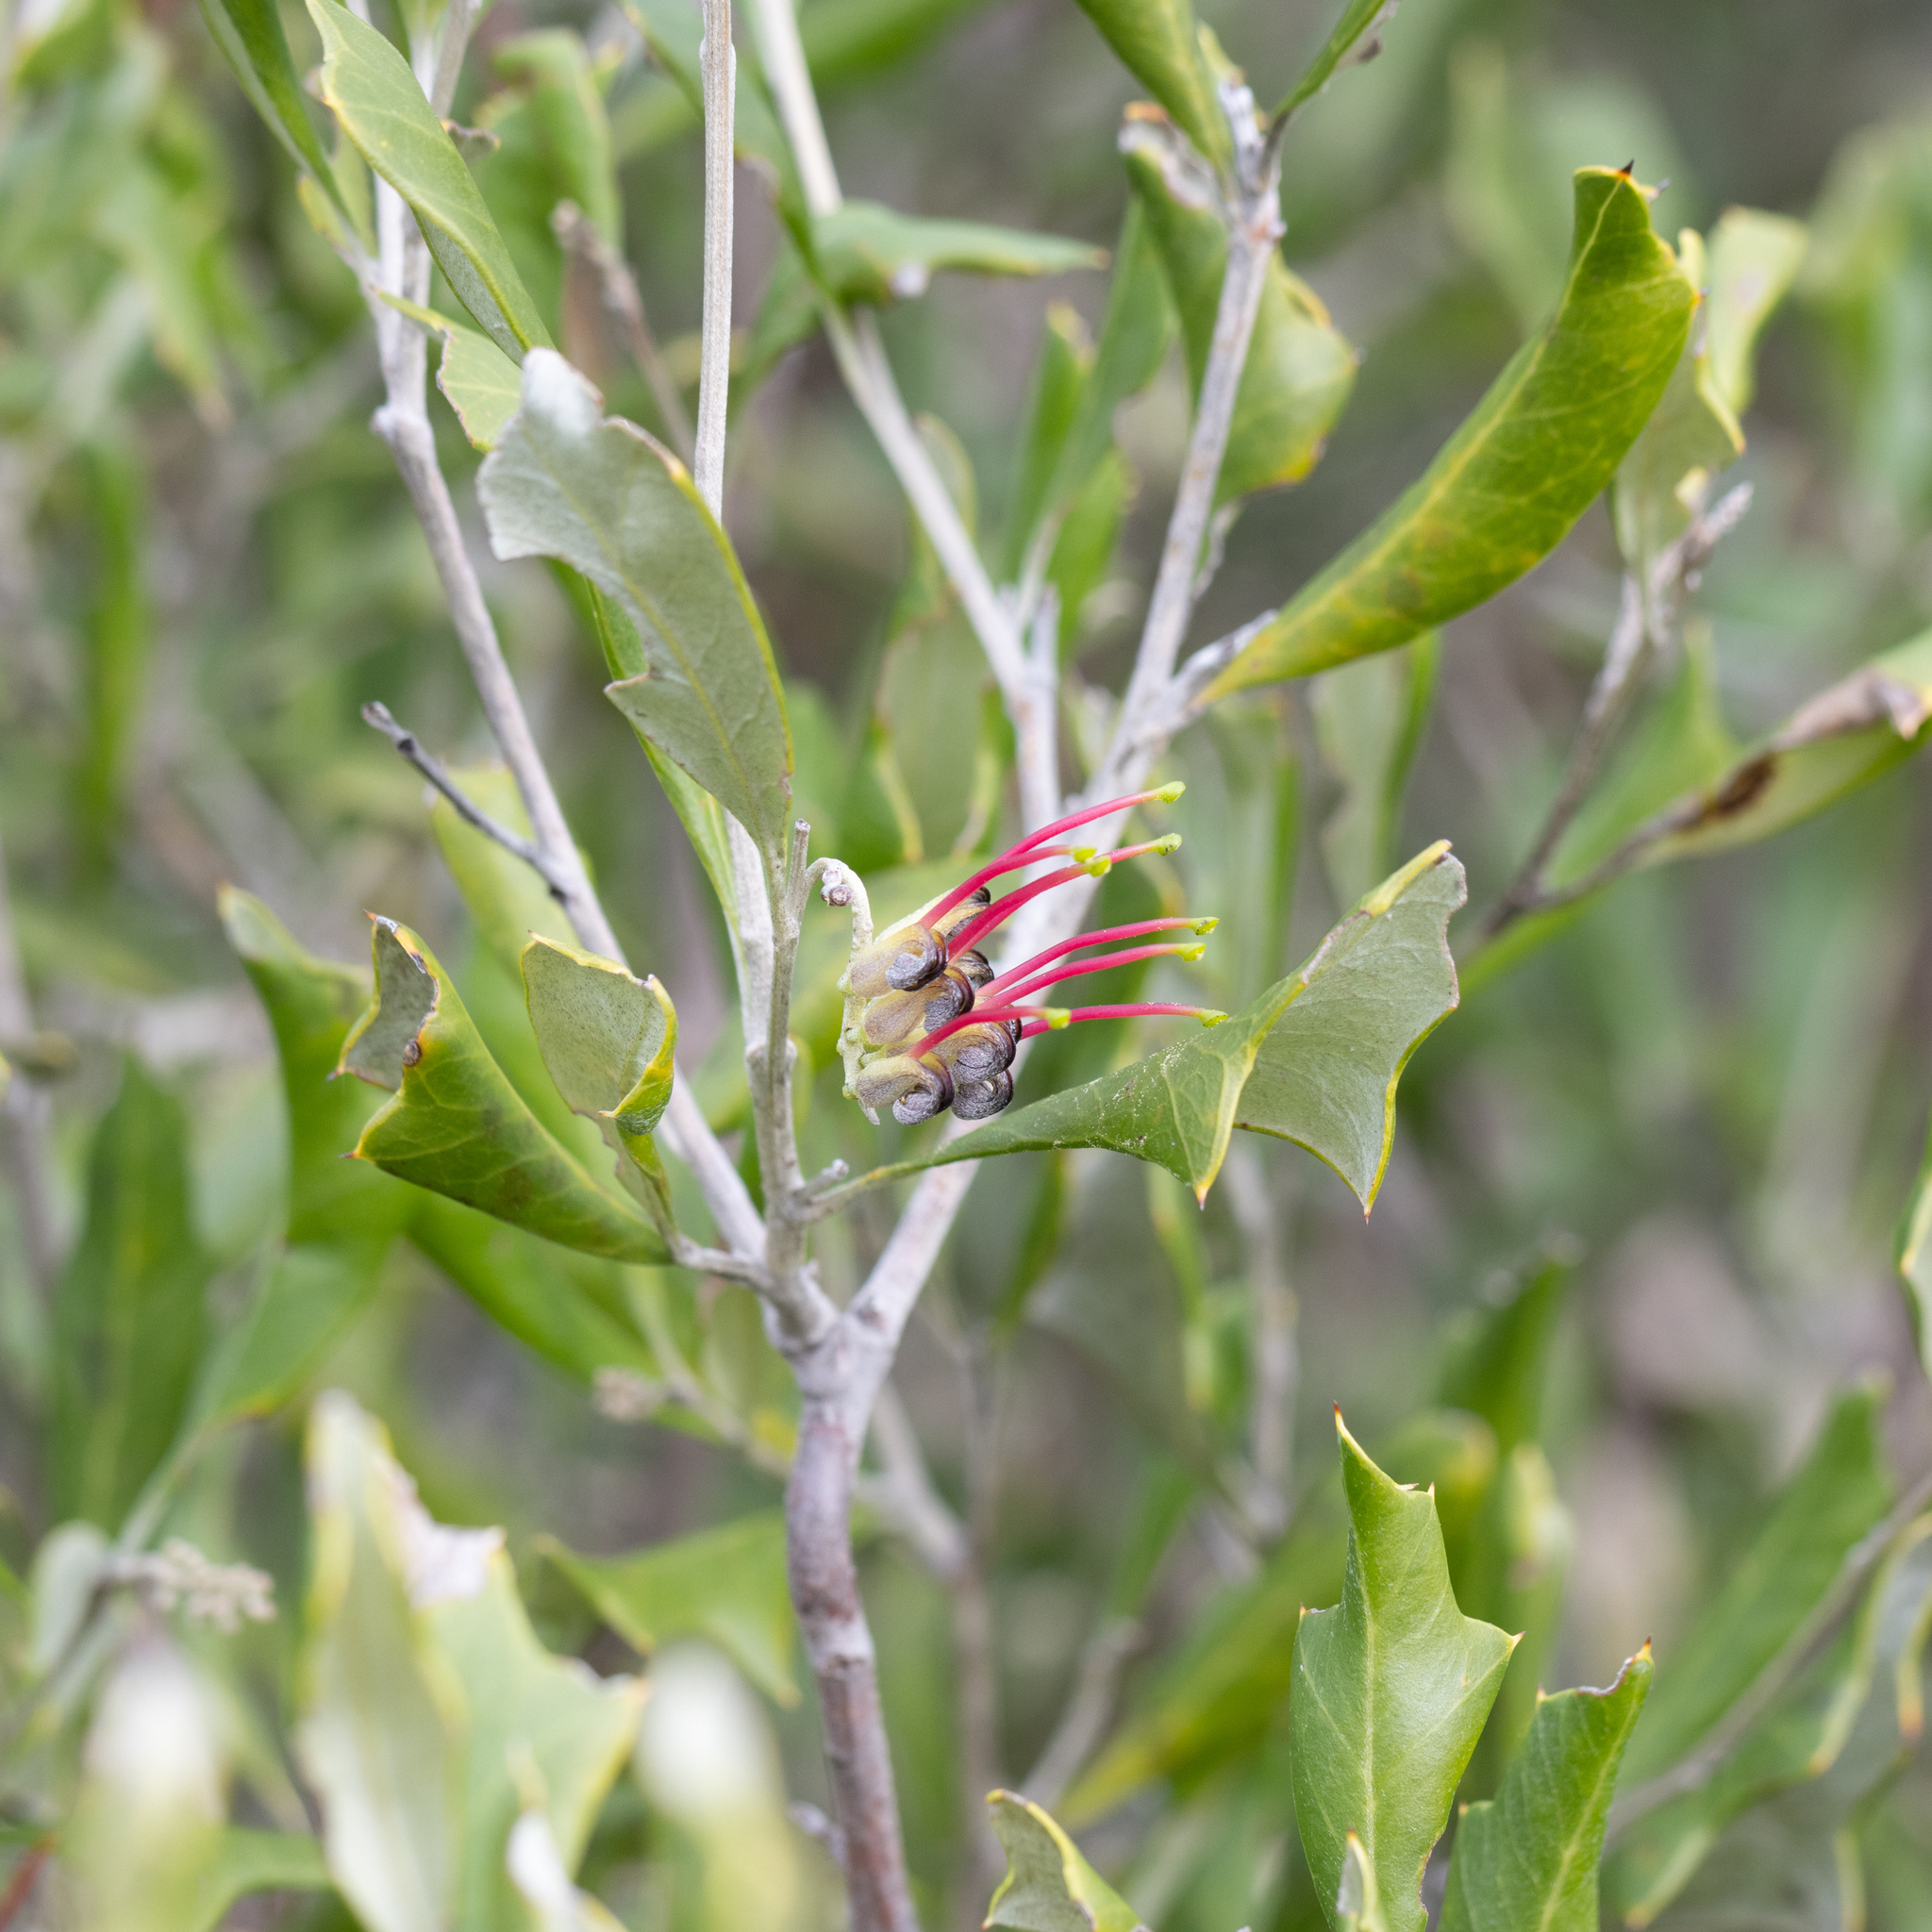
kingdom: Plantae
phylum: Tracheophyta
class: Magnoliopsida
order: Proteales
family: Proteaceae
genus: Grevillea
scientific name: Grevillea ilicifolia
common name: Holly grevillea
